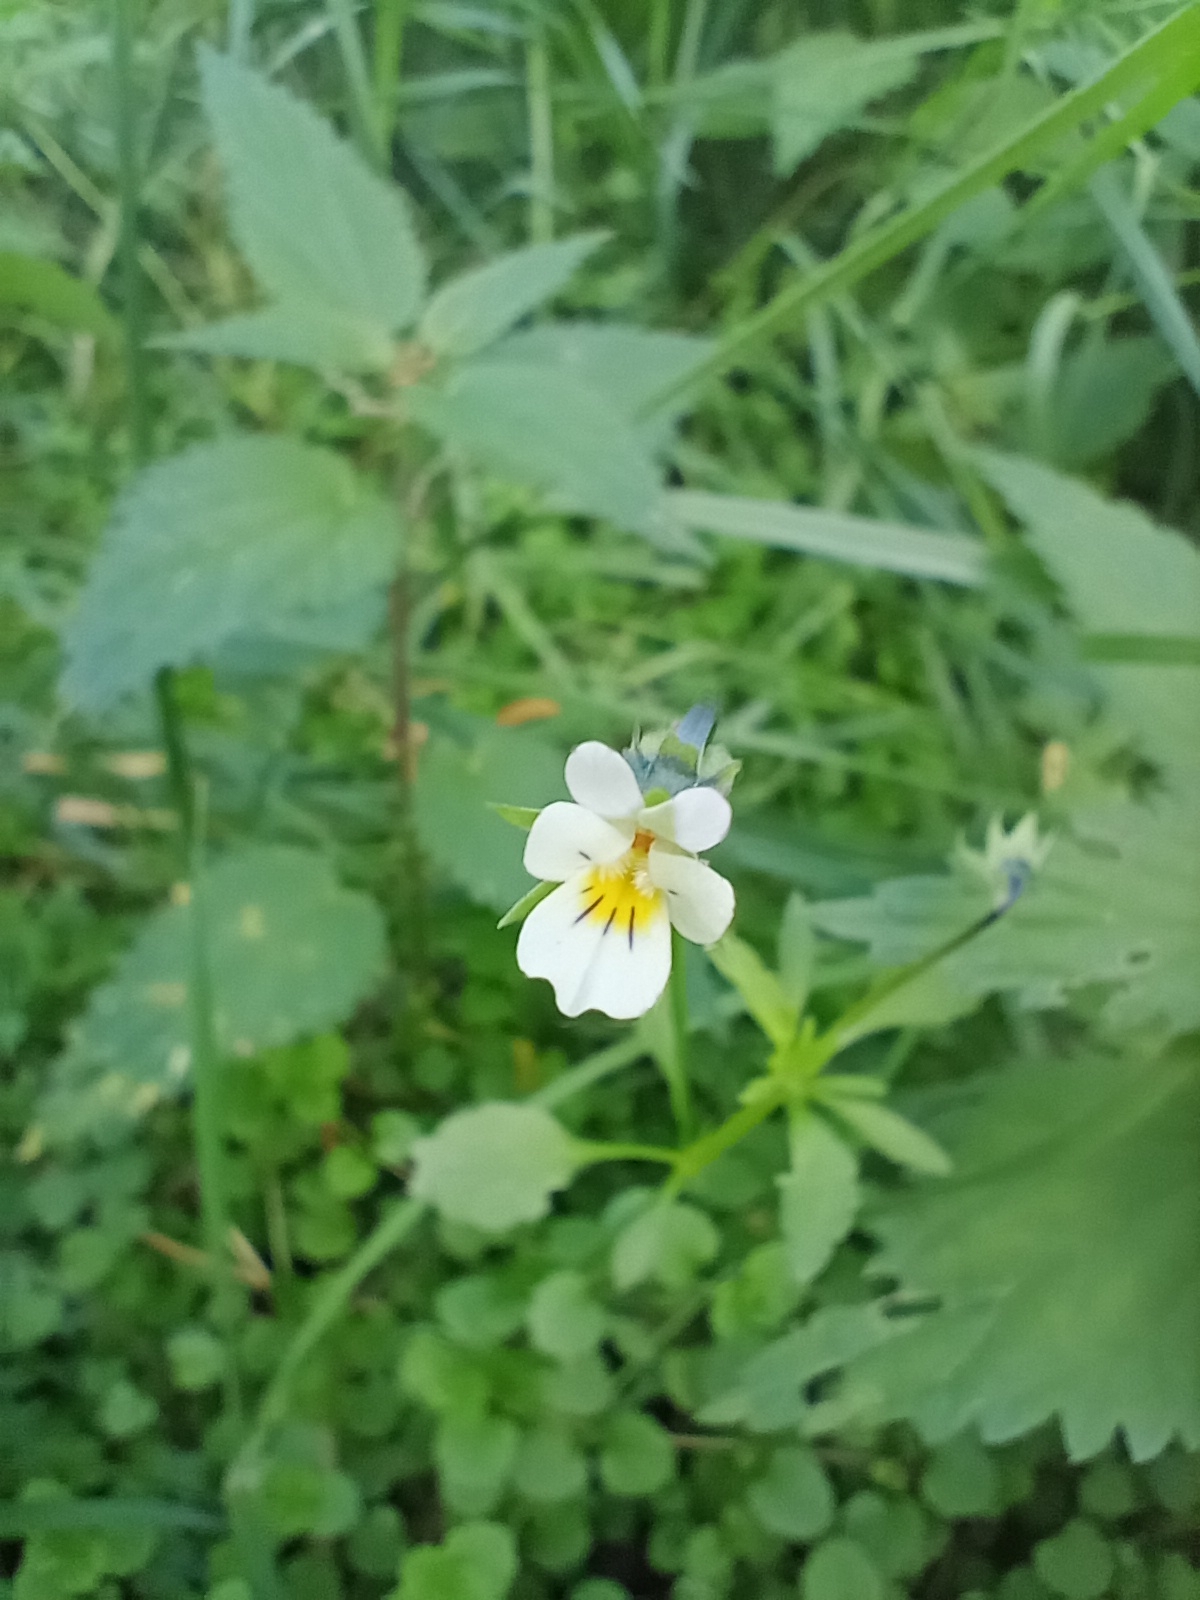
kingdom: Plantae
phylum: Tracheophyta
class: Magnoliopsida
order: Malpighiales
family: Violaceae
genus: Viola
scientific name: Viola arvensis
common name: Field pansy
